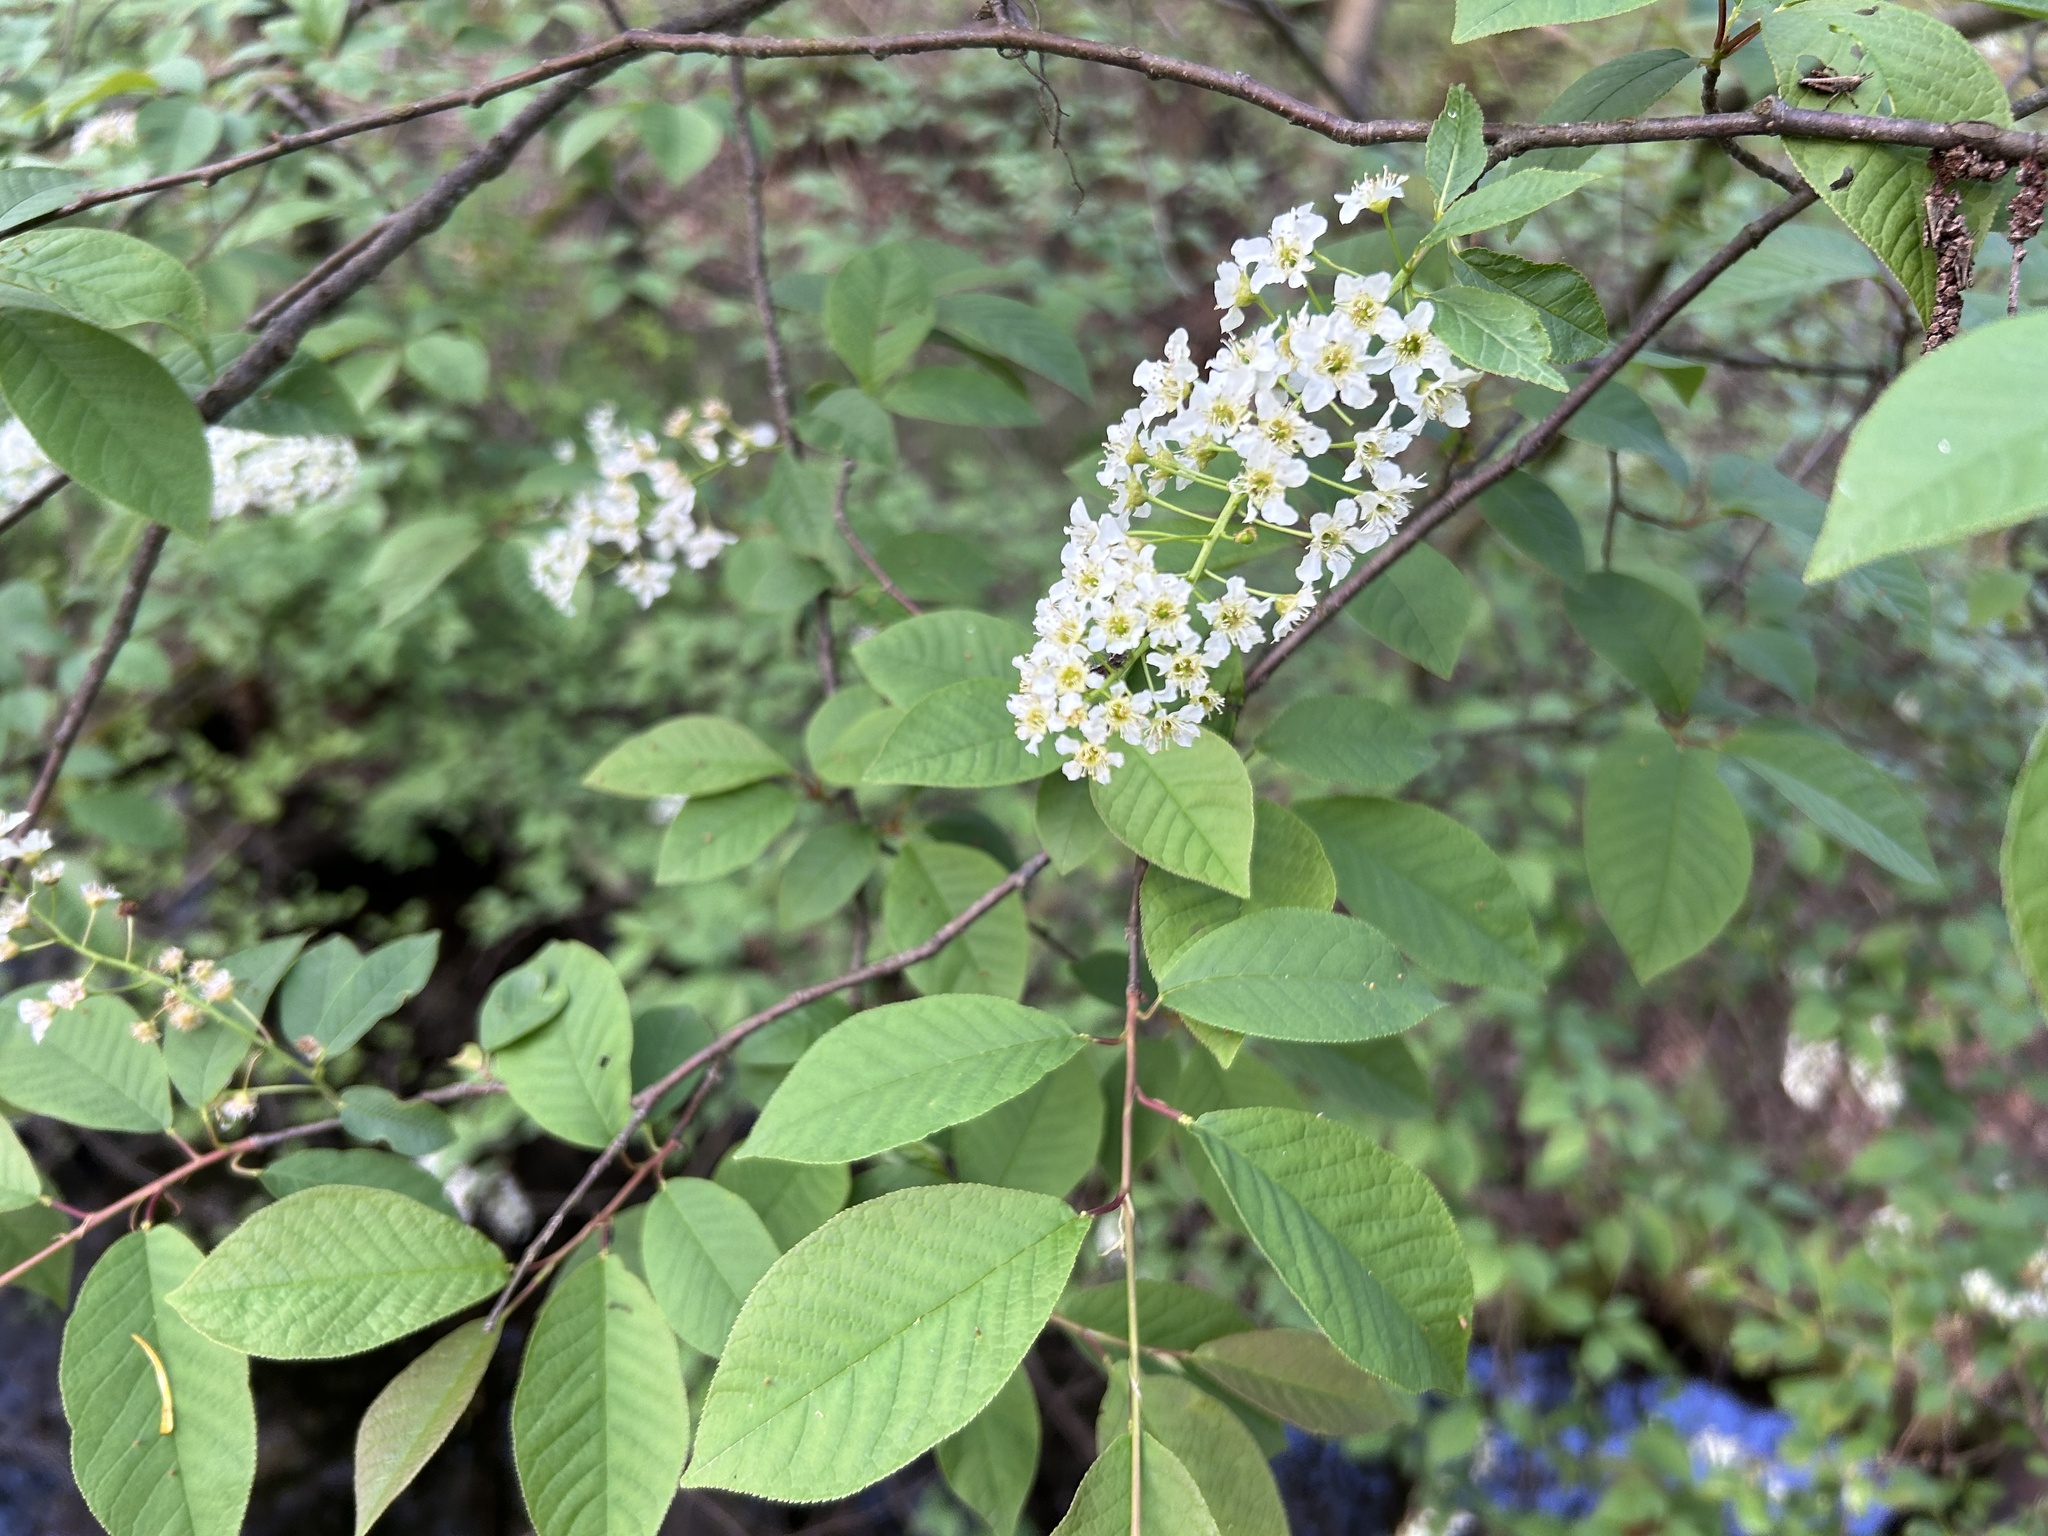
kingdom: Plantae
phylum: Tracheophyta
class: Magnoliopsida
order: Rosales
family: Rosaceae
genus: Prunus
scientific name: Prunus padus
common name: Bird cherry
